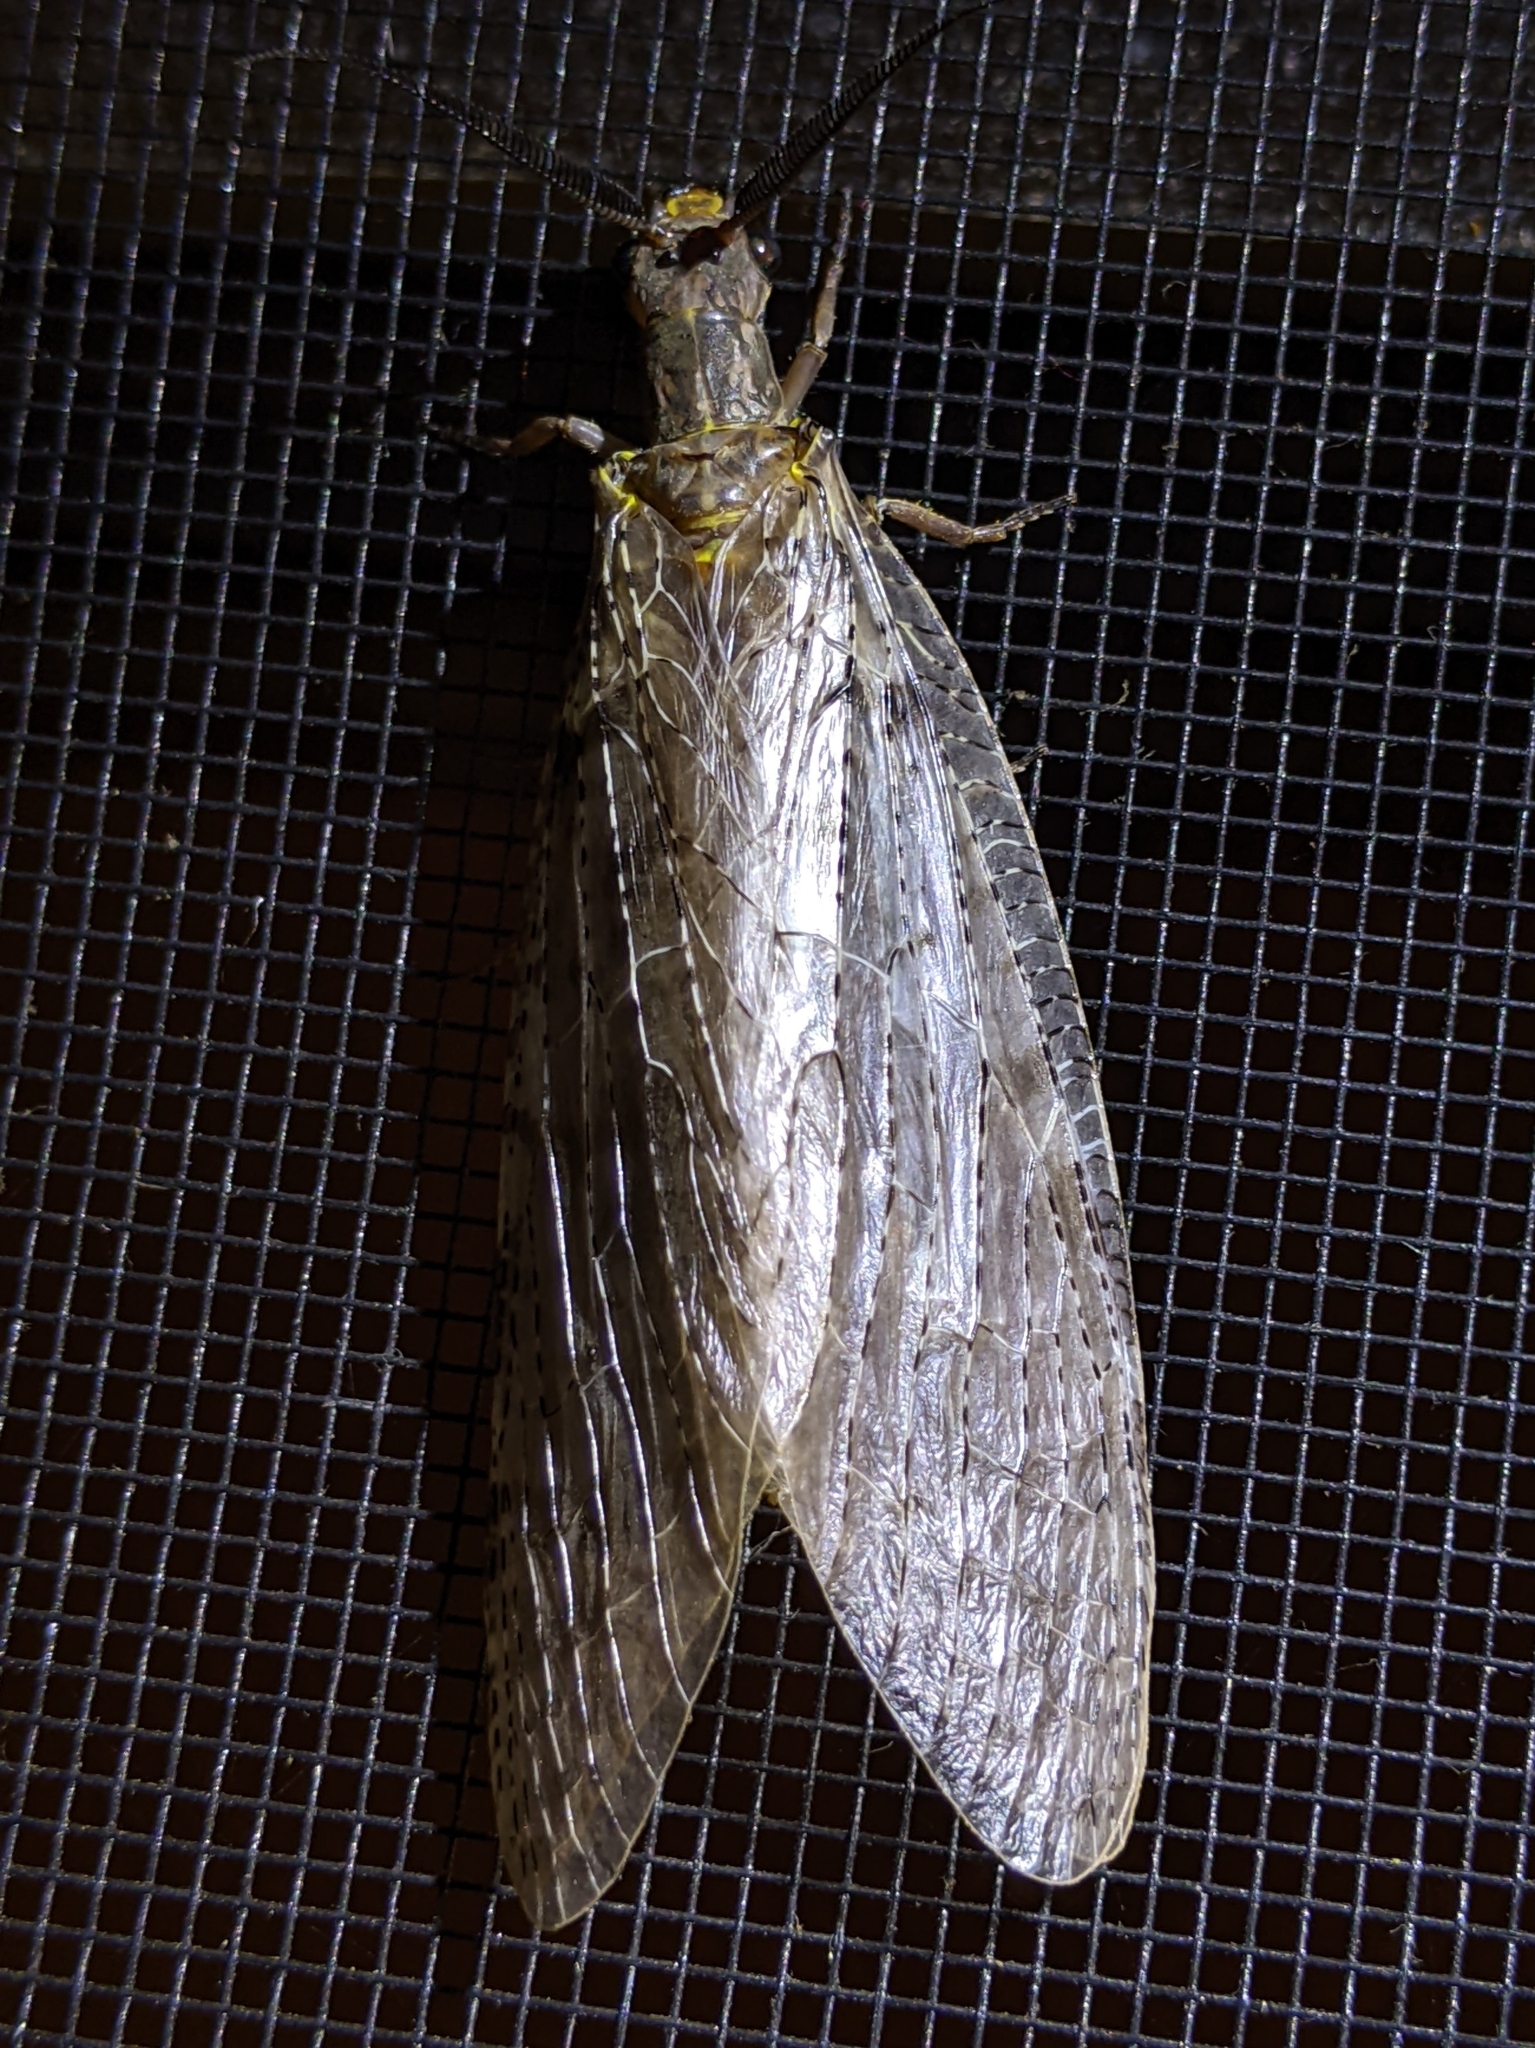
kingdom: Animalia
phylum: Arthropoda
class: Insecta
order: Megaloptera
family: Corydalidae
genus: Chauliodes
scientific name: Chauliodes pectinicornis
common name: Summer fishfly
